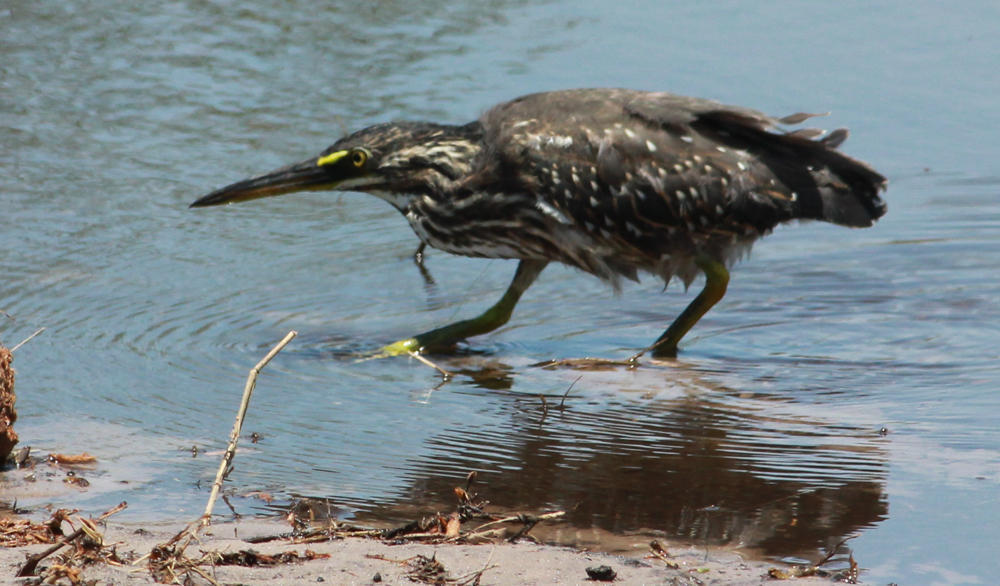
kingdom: Animalia
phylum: Chordata
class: Aves
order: Pelecaniformes
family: Ardeidae
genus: Butorides
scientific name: Butorides striata
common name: Striated heron
